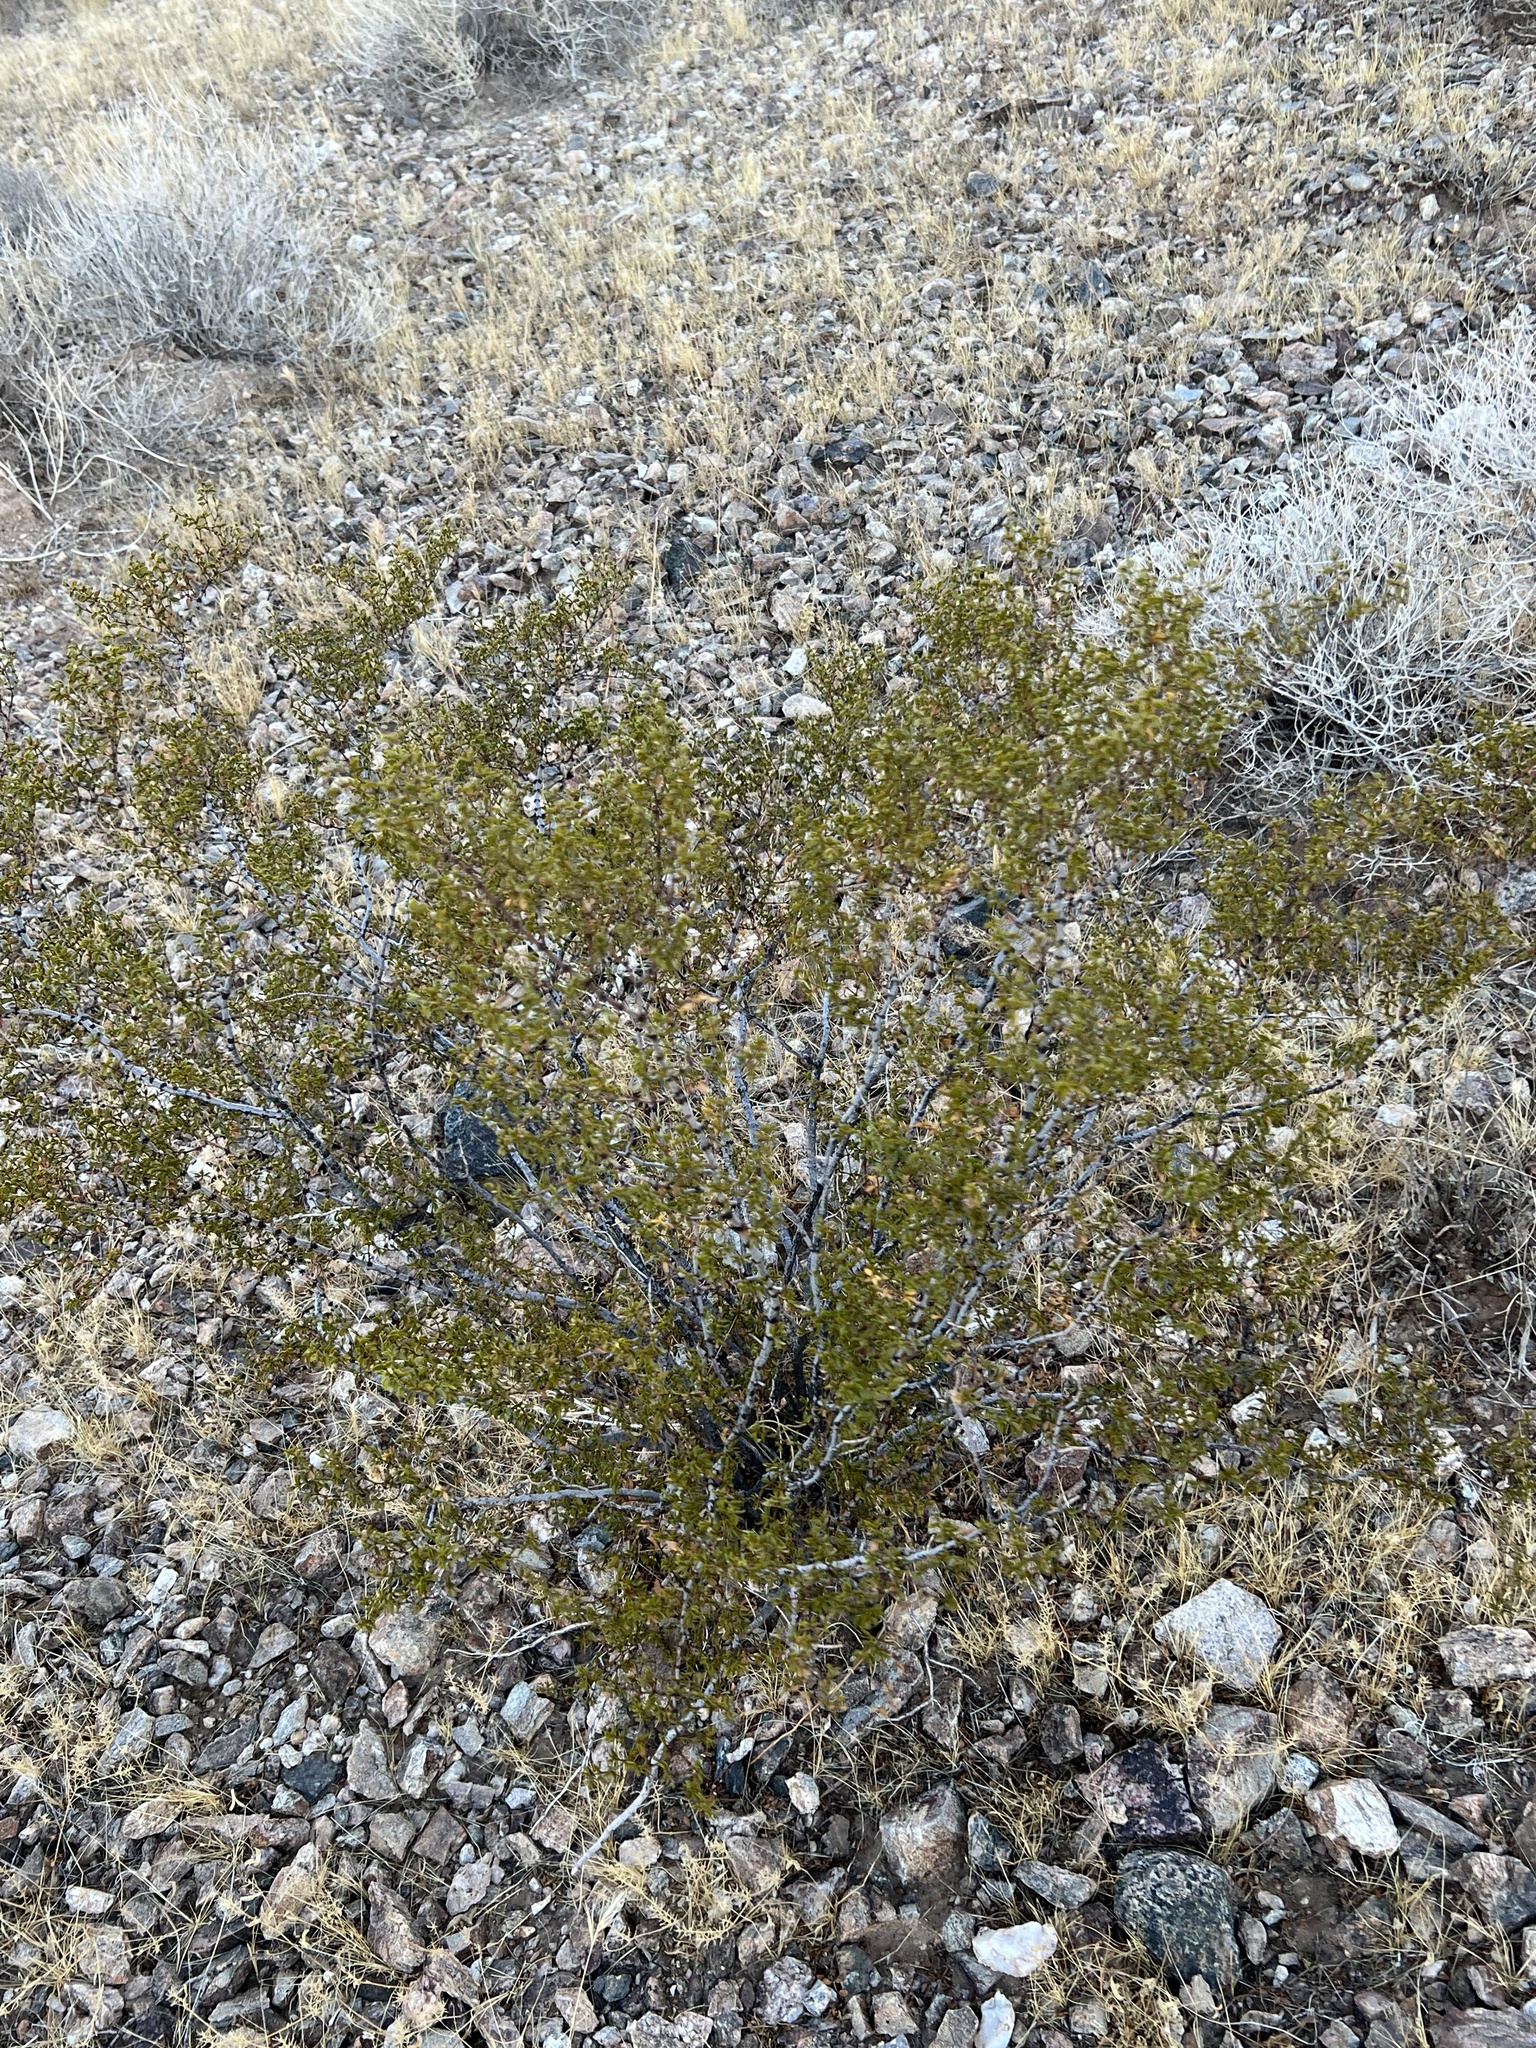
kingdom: Plantae
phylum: Tracheophyta
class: Magnoliopsida
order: Zygophyllales
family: Zygophyllaceae
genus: Larrea
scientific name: Larrea tridentata
